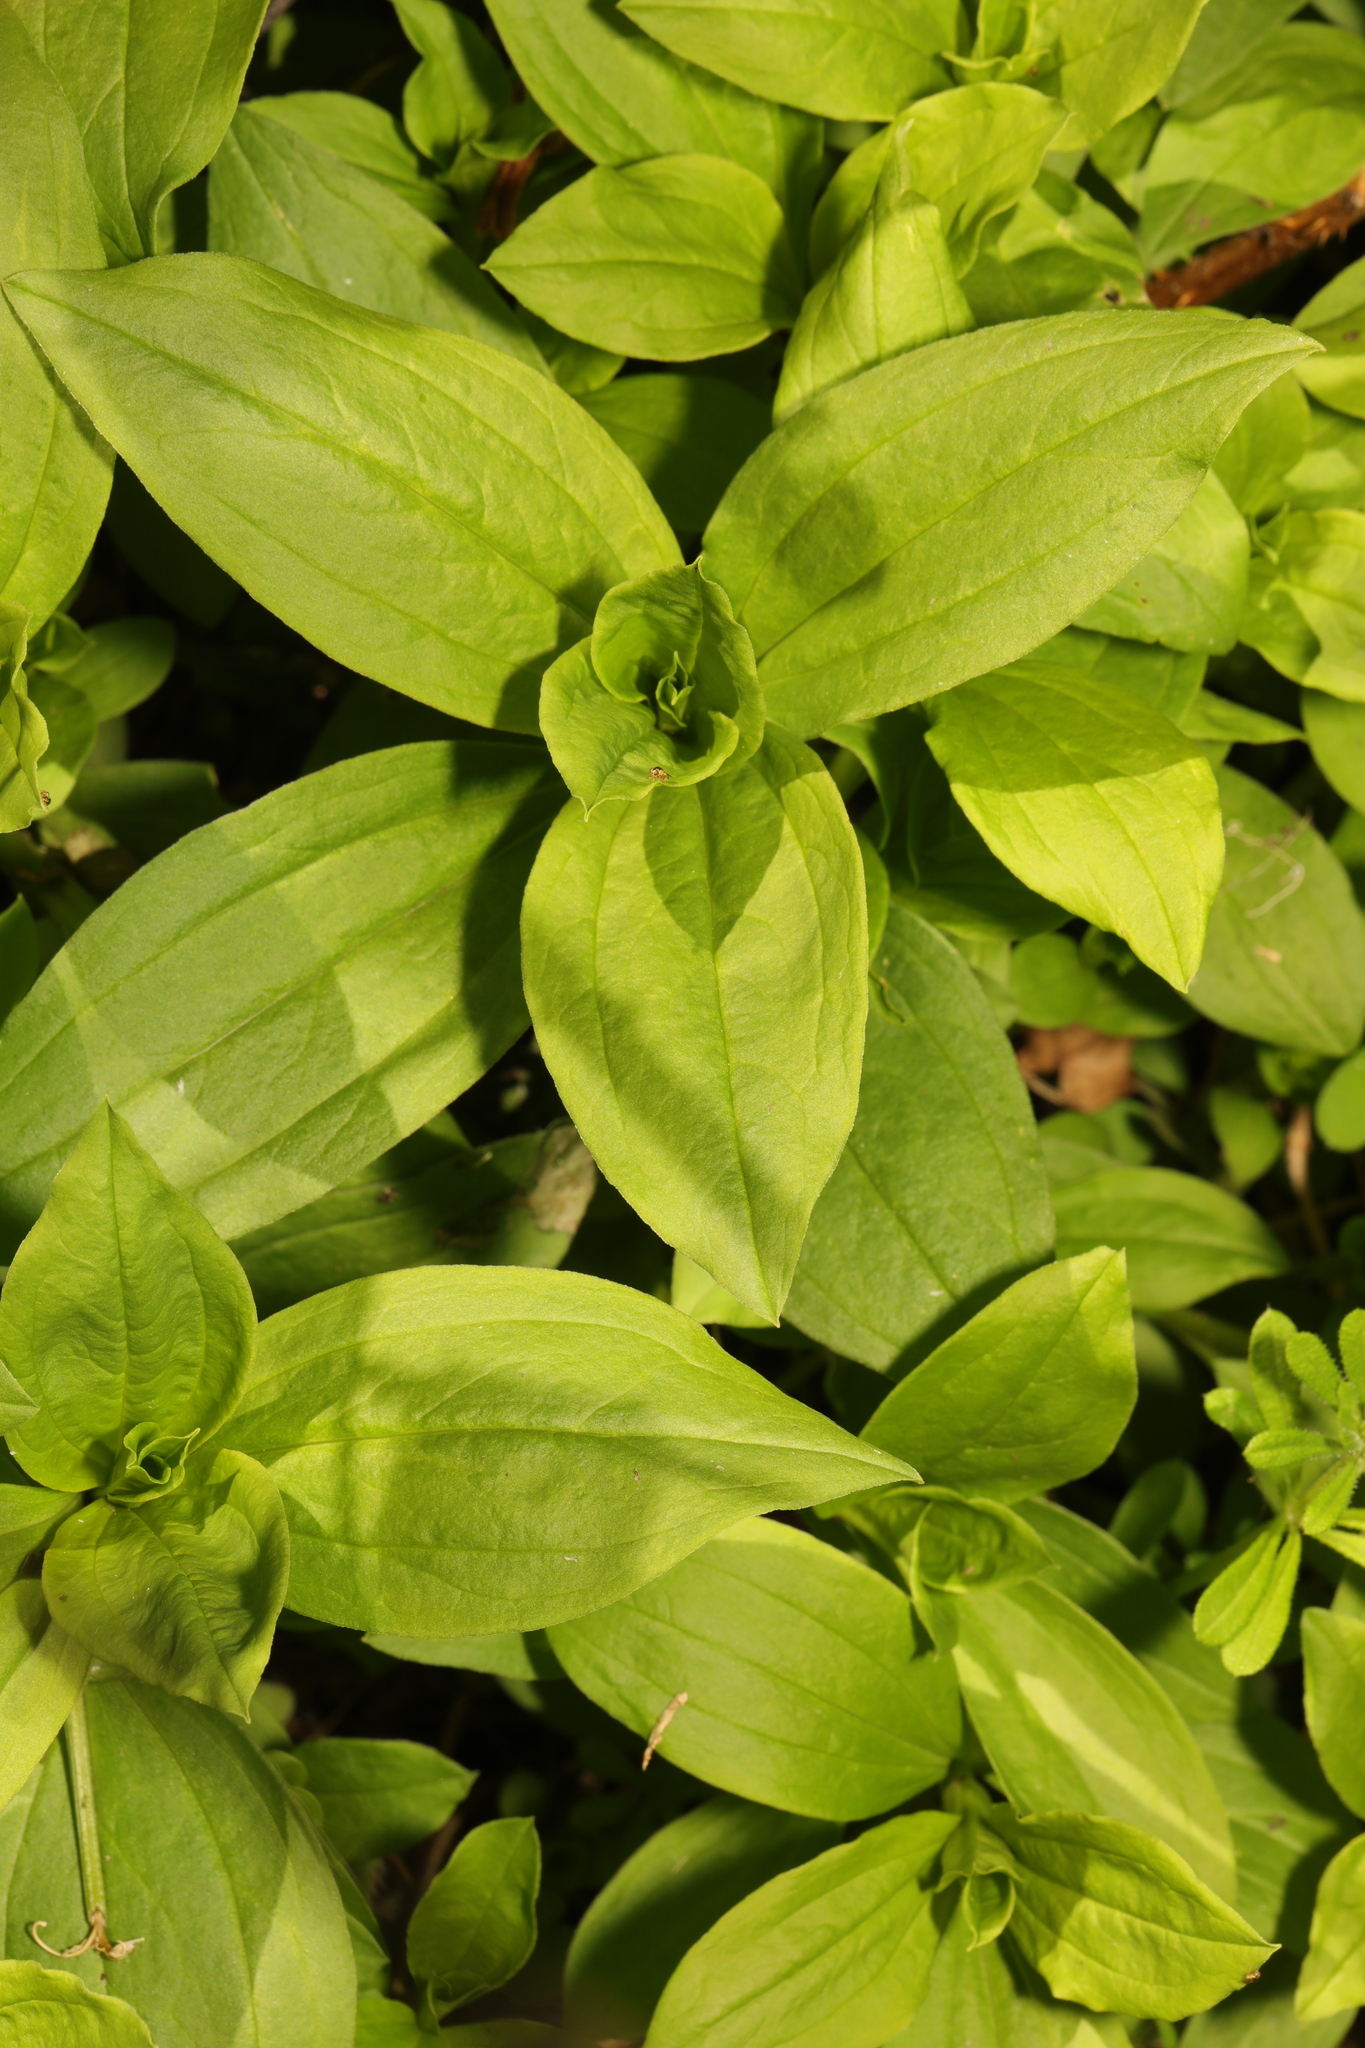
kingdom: Plantae
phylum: Tracheophyta
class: Magnoliopsida
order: Caryophyllales
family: Caryophyllaceae
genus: Silene
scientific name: Silene dioica
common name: Red campion
